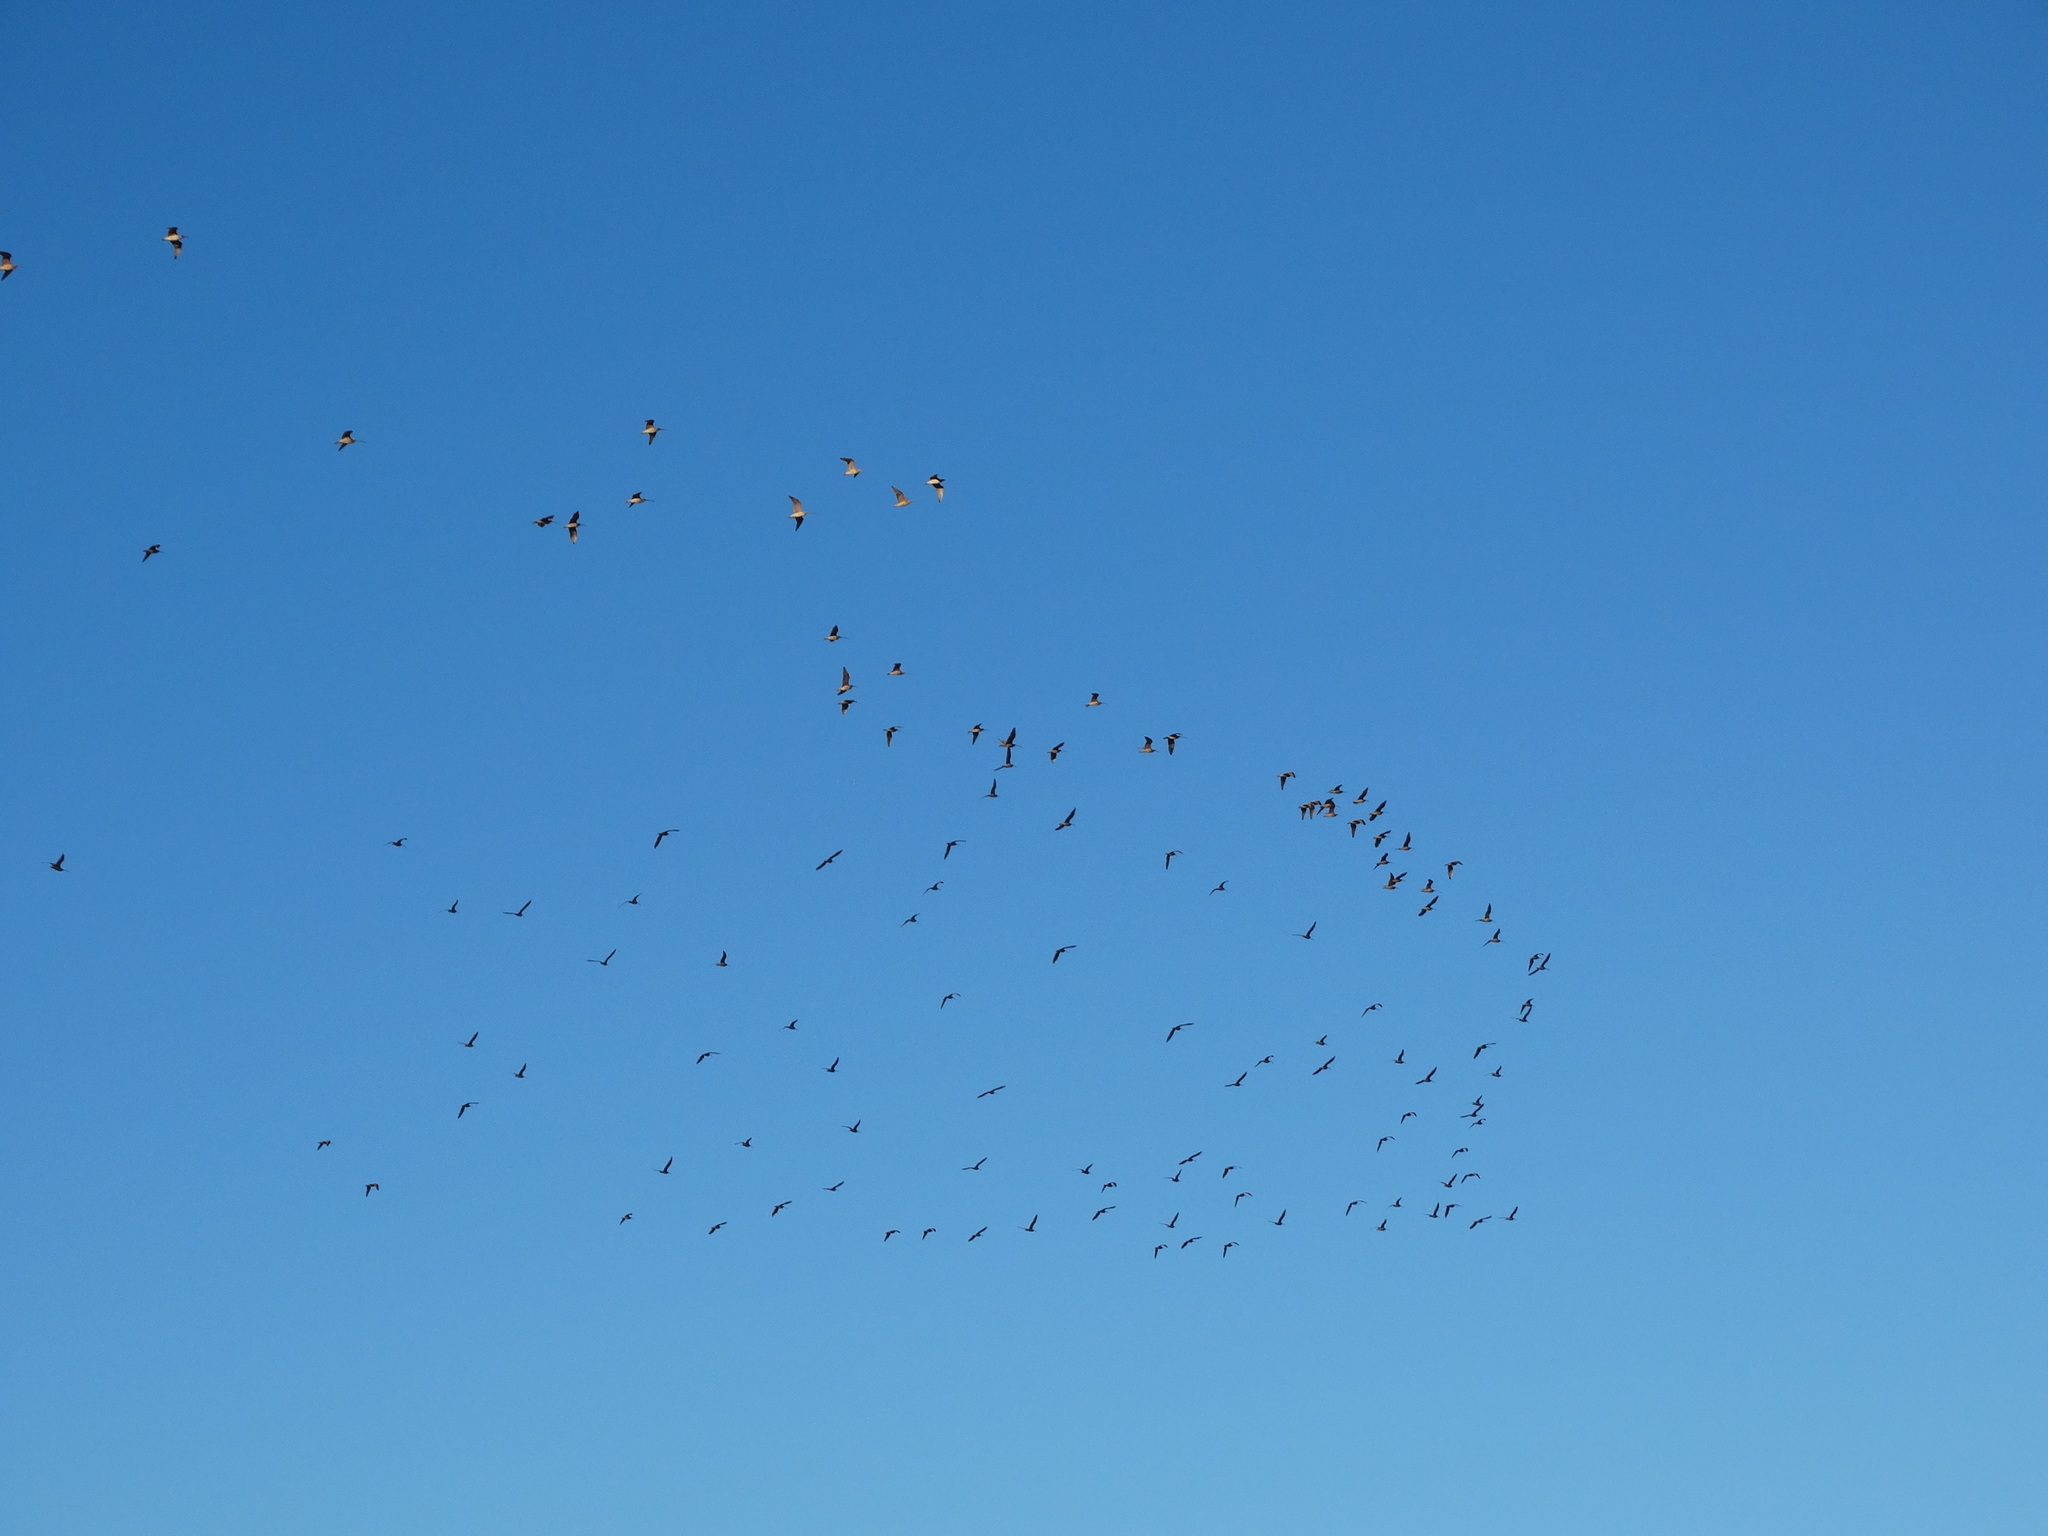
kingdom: Animalia
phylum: Chordata
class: Aves
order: Charadriiformes
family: Scolopacidae
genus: Numenius
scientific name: Numenius americanus
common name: Long-billed curlew
